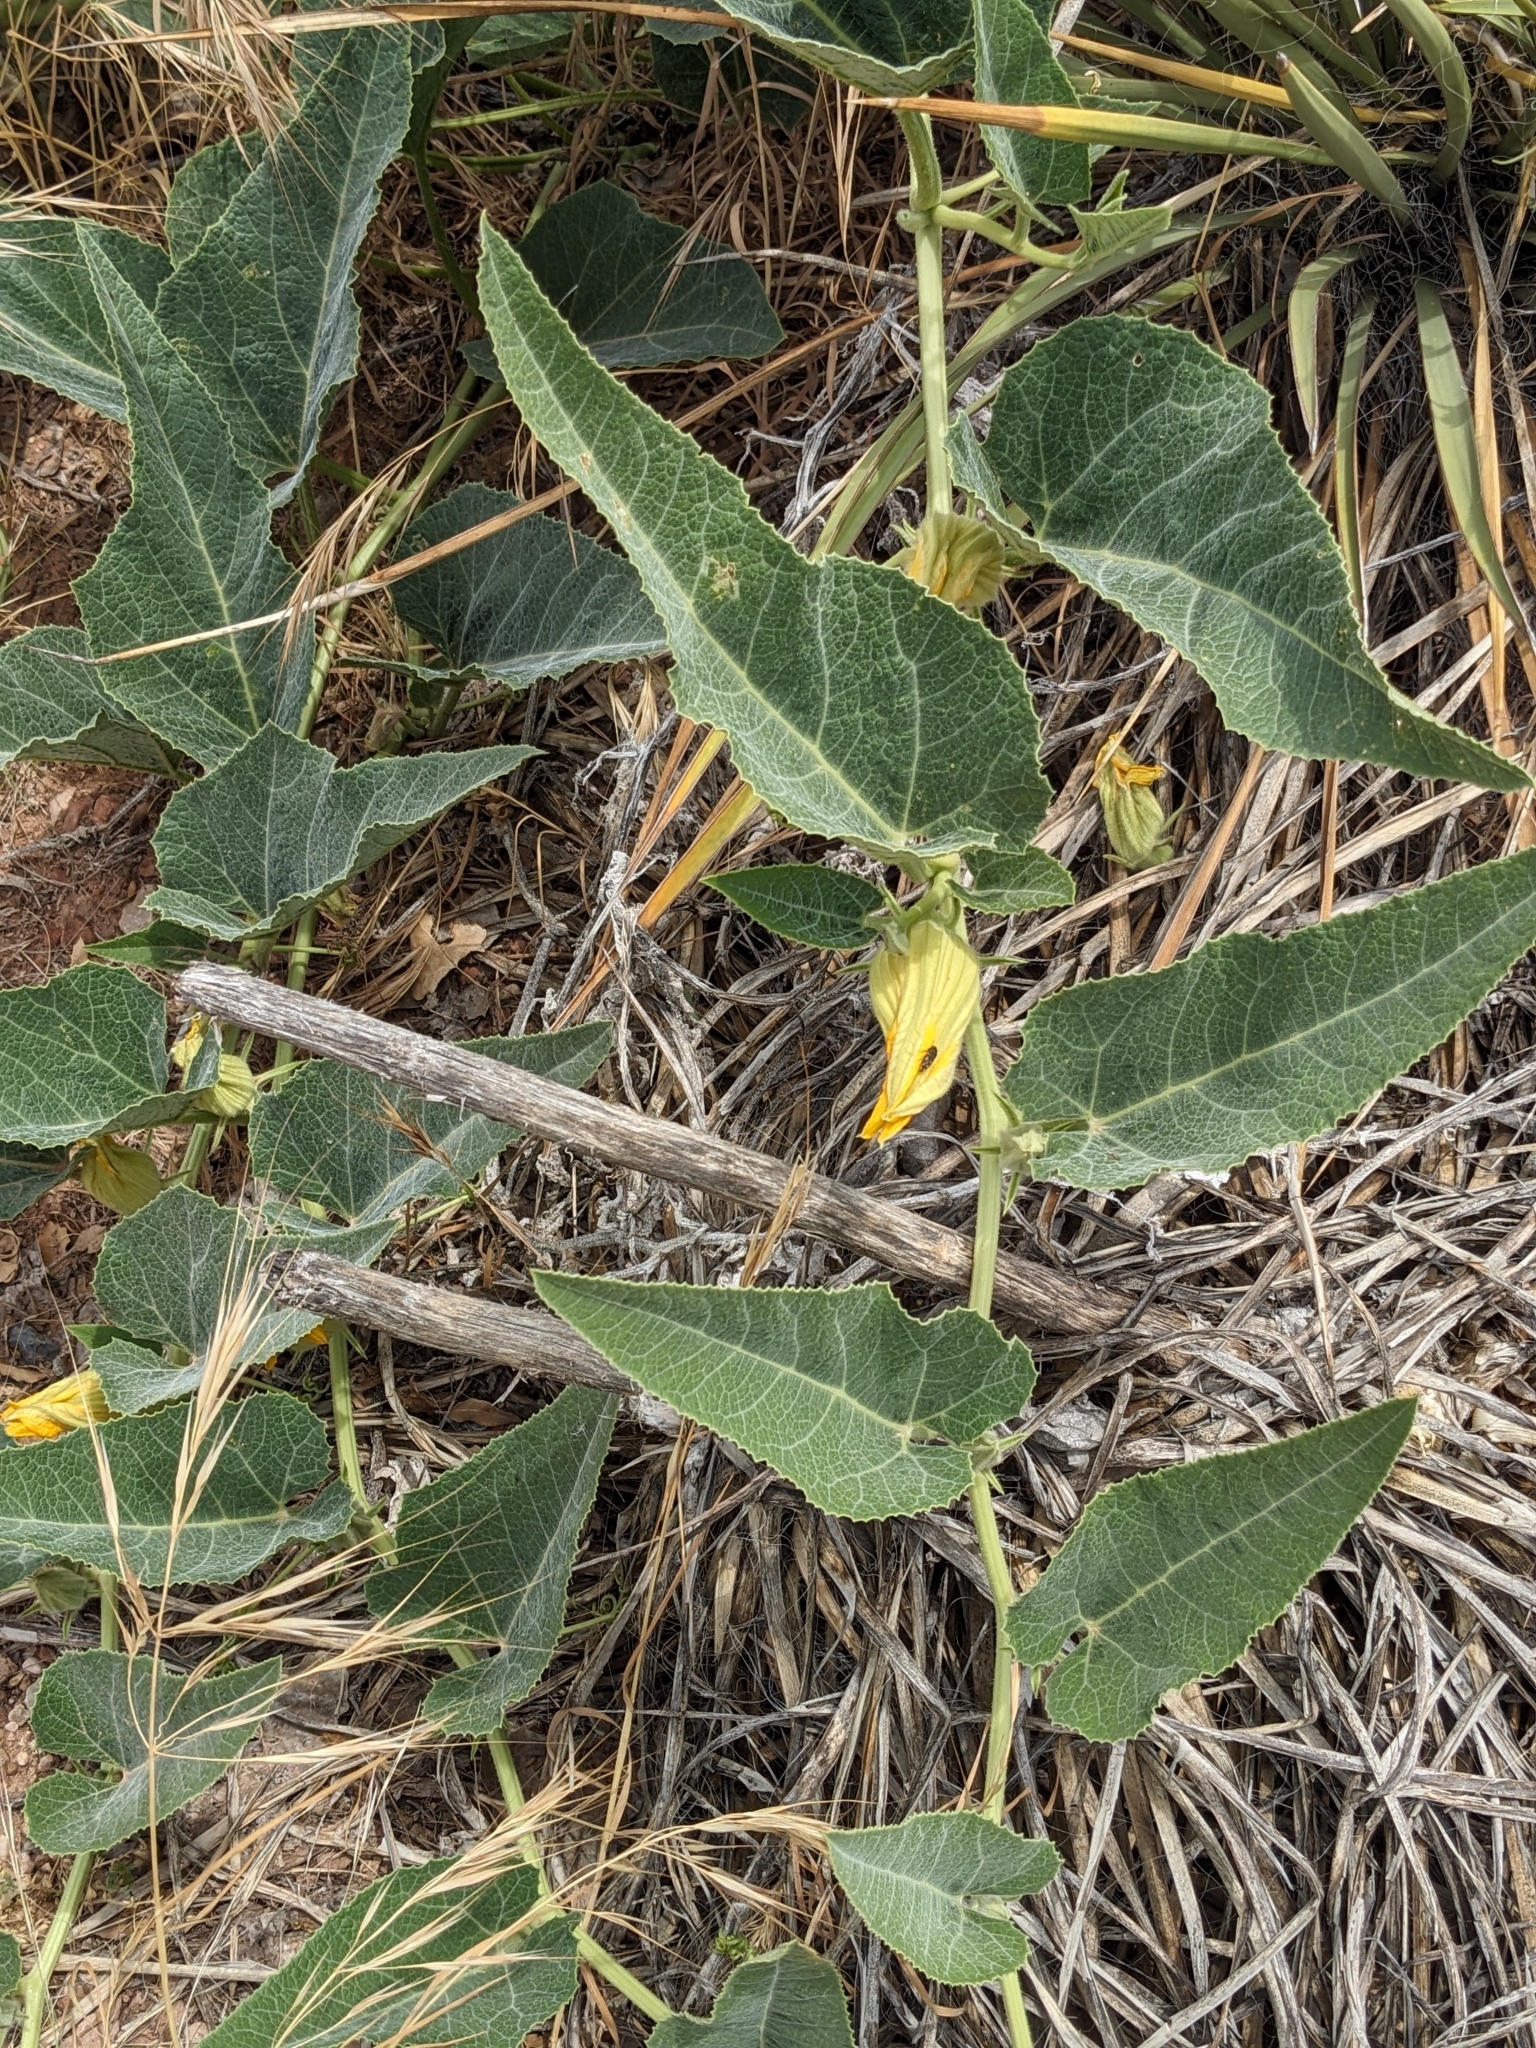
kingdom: Plantae
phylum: Tracheophyta
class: Magnoliopsida
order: Cucurbitales
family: Cucurbitaceae
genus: Cucurbita
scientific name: Cucurbita foetidissima
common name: Buffalo gourd
